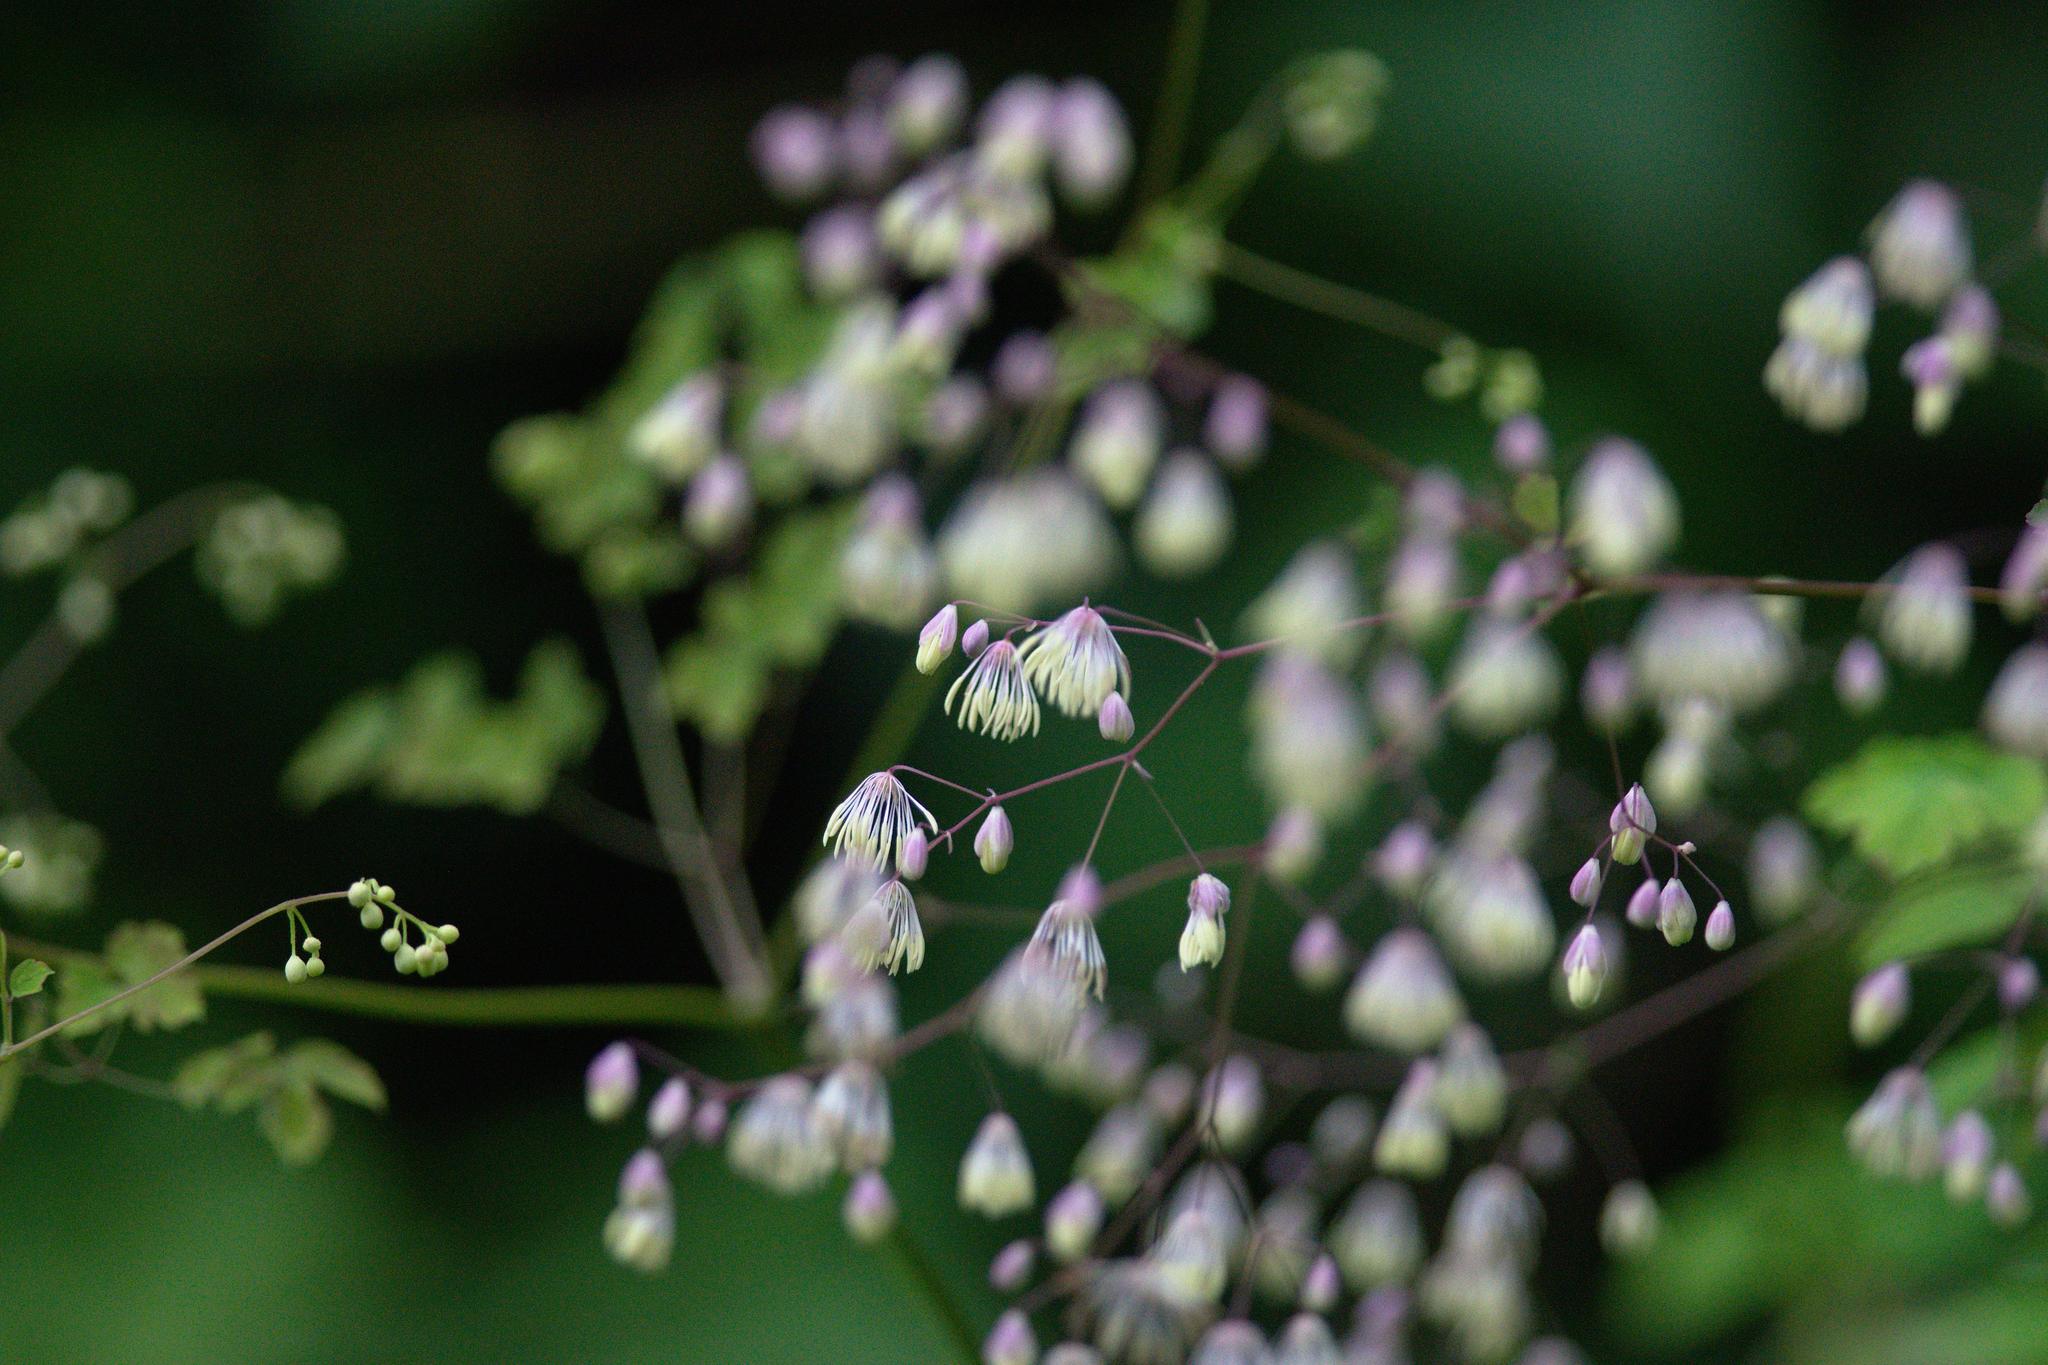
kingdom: Plantae
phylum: Tracheophyta
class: Magnoliopsida
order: Ranunculales
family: Ranunculaceae
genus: Thalictrum
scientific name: Thalictrum foliolosum
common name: Asian meadow-rue
